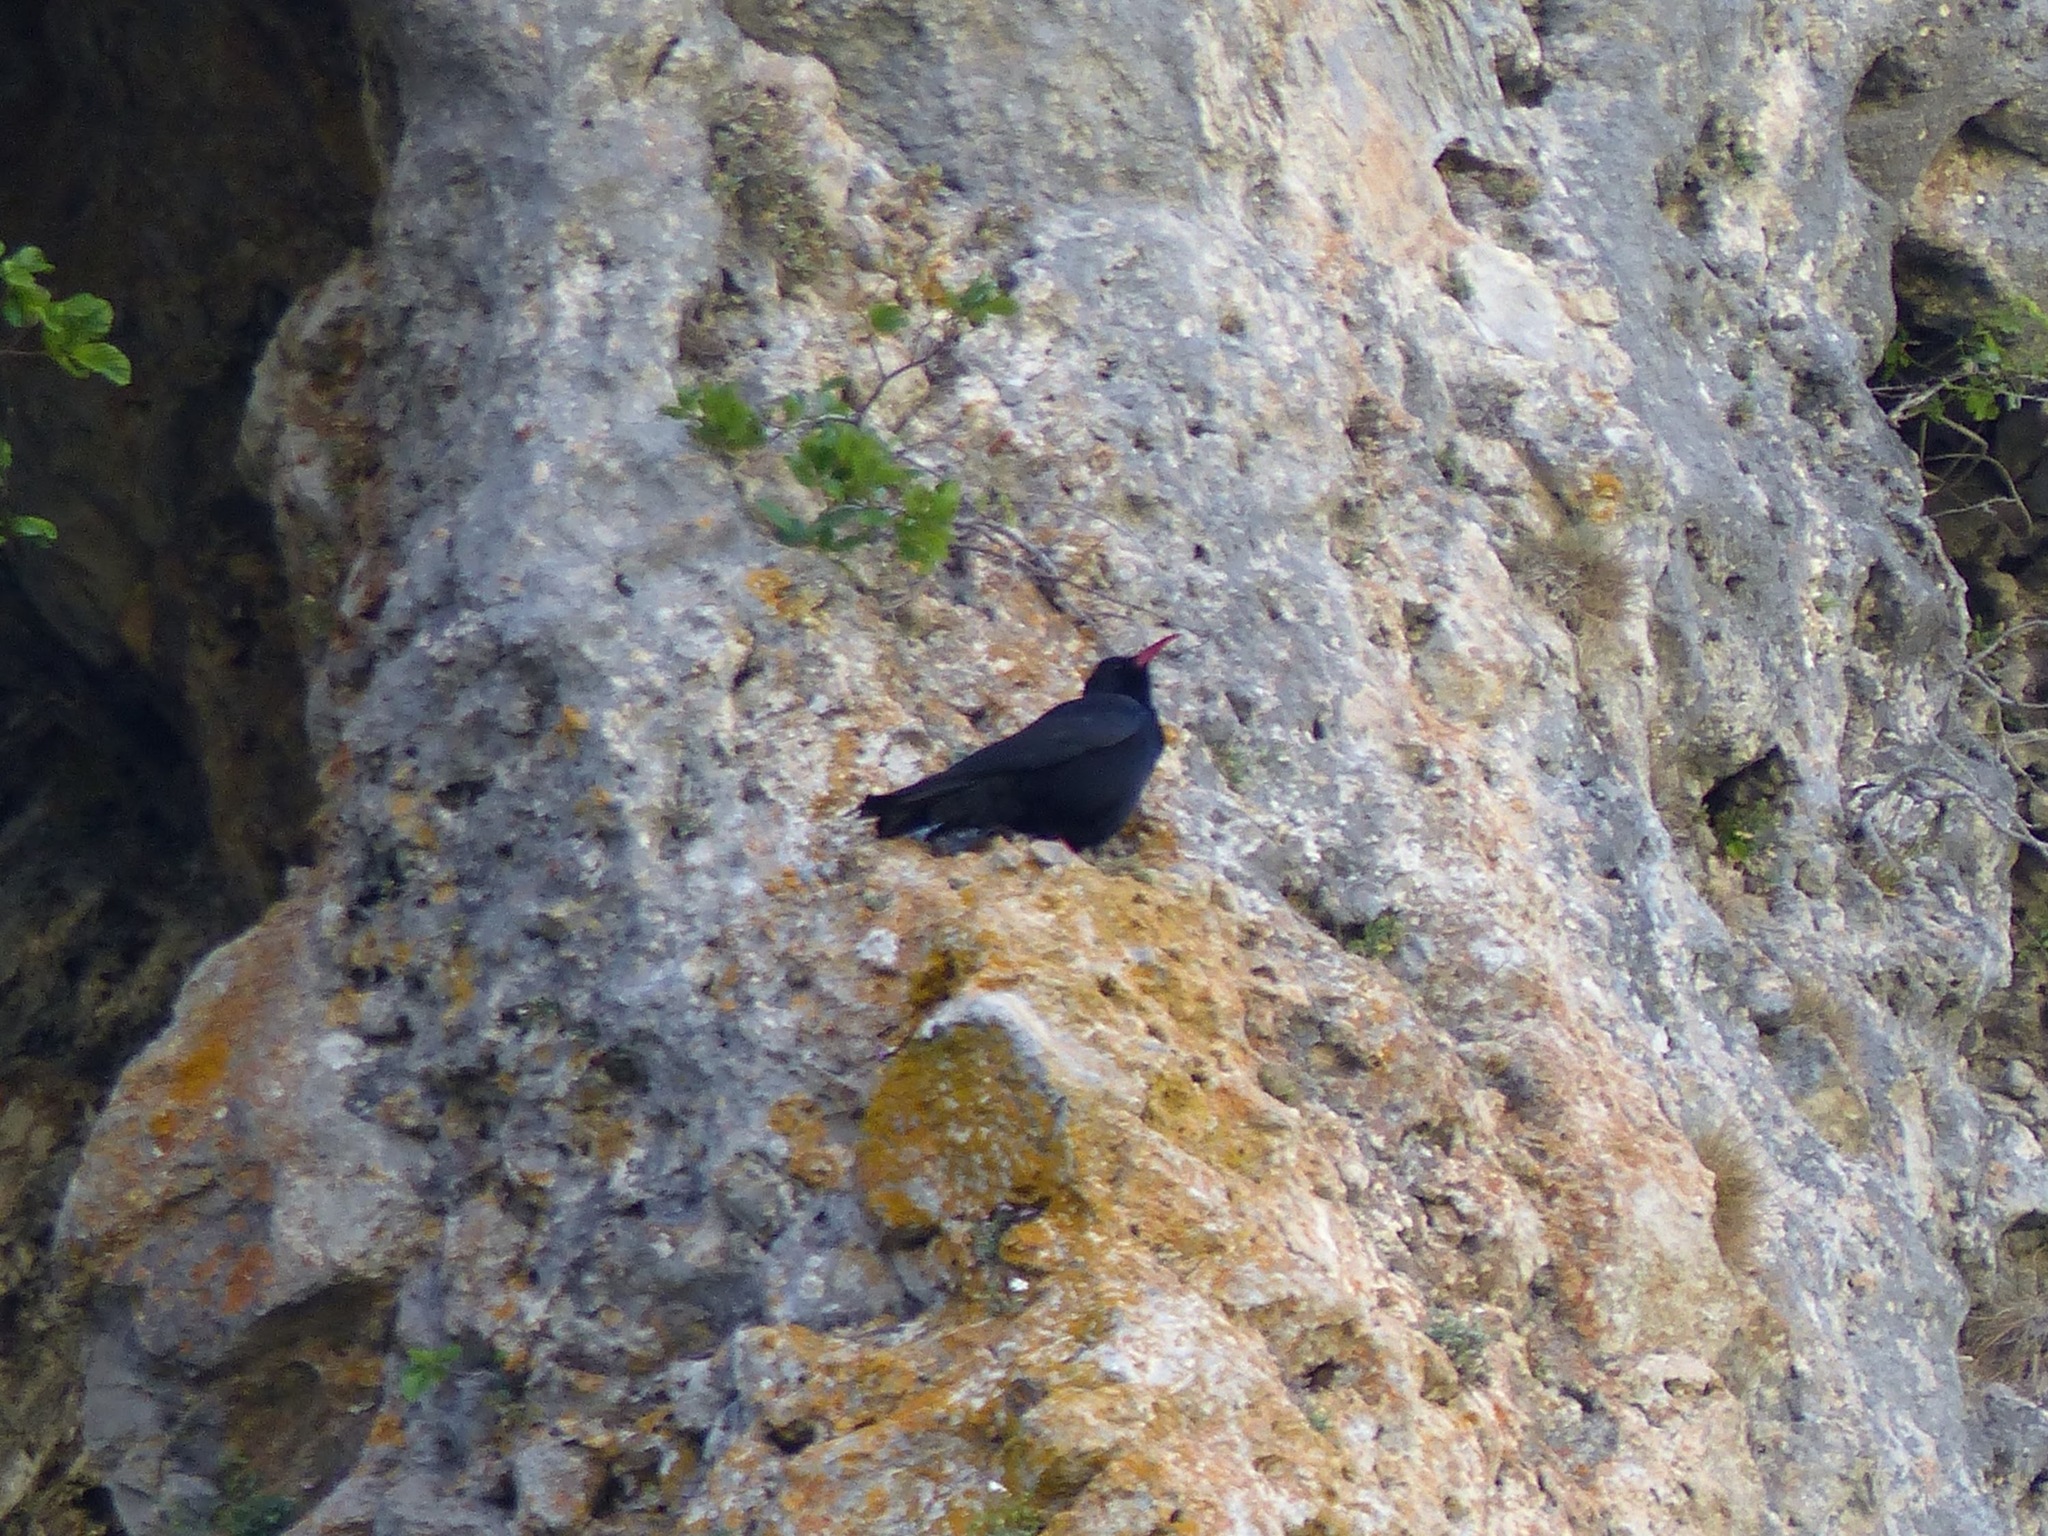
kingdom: Animalia
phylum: Chordata
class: Aves
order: Passeriformes
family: Corvidae
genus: Pyrrhocorax
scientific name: Pyrrhocorax pyrrhocorax
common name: Red-billed chough
